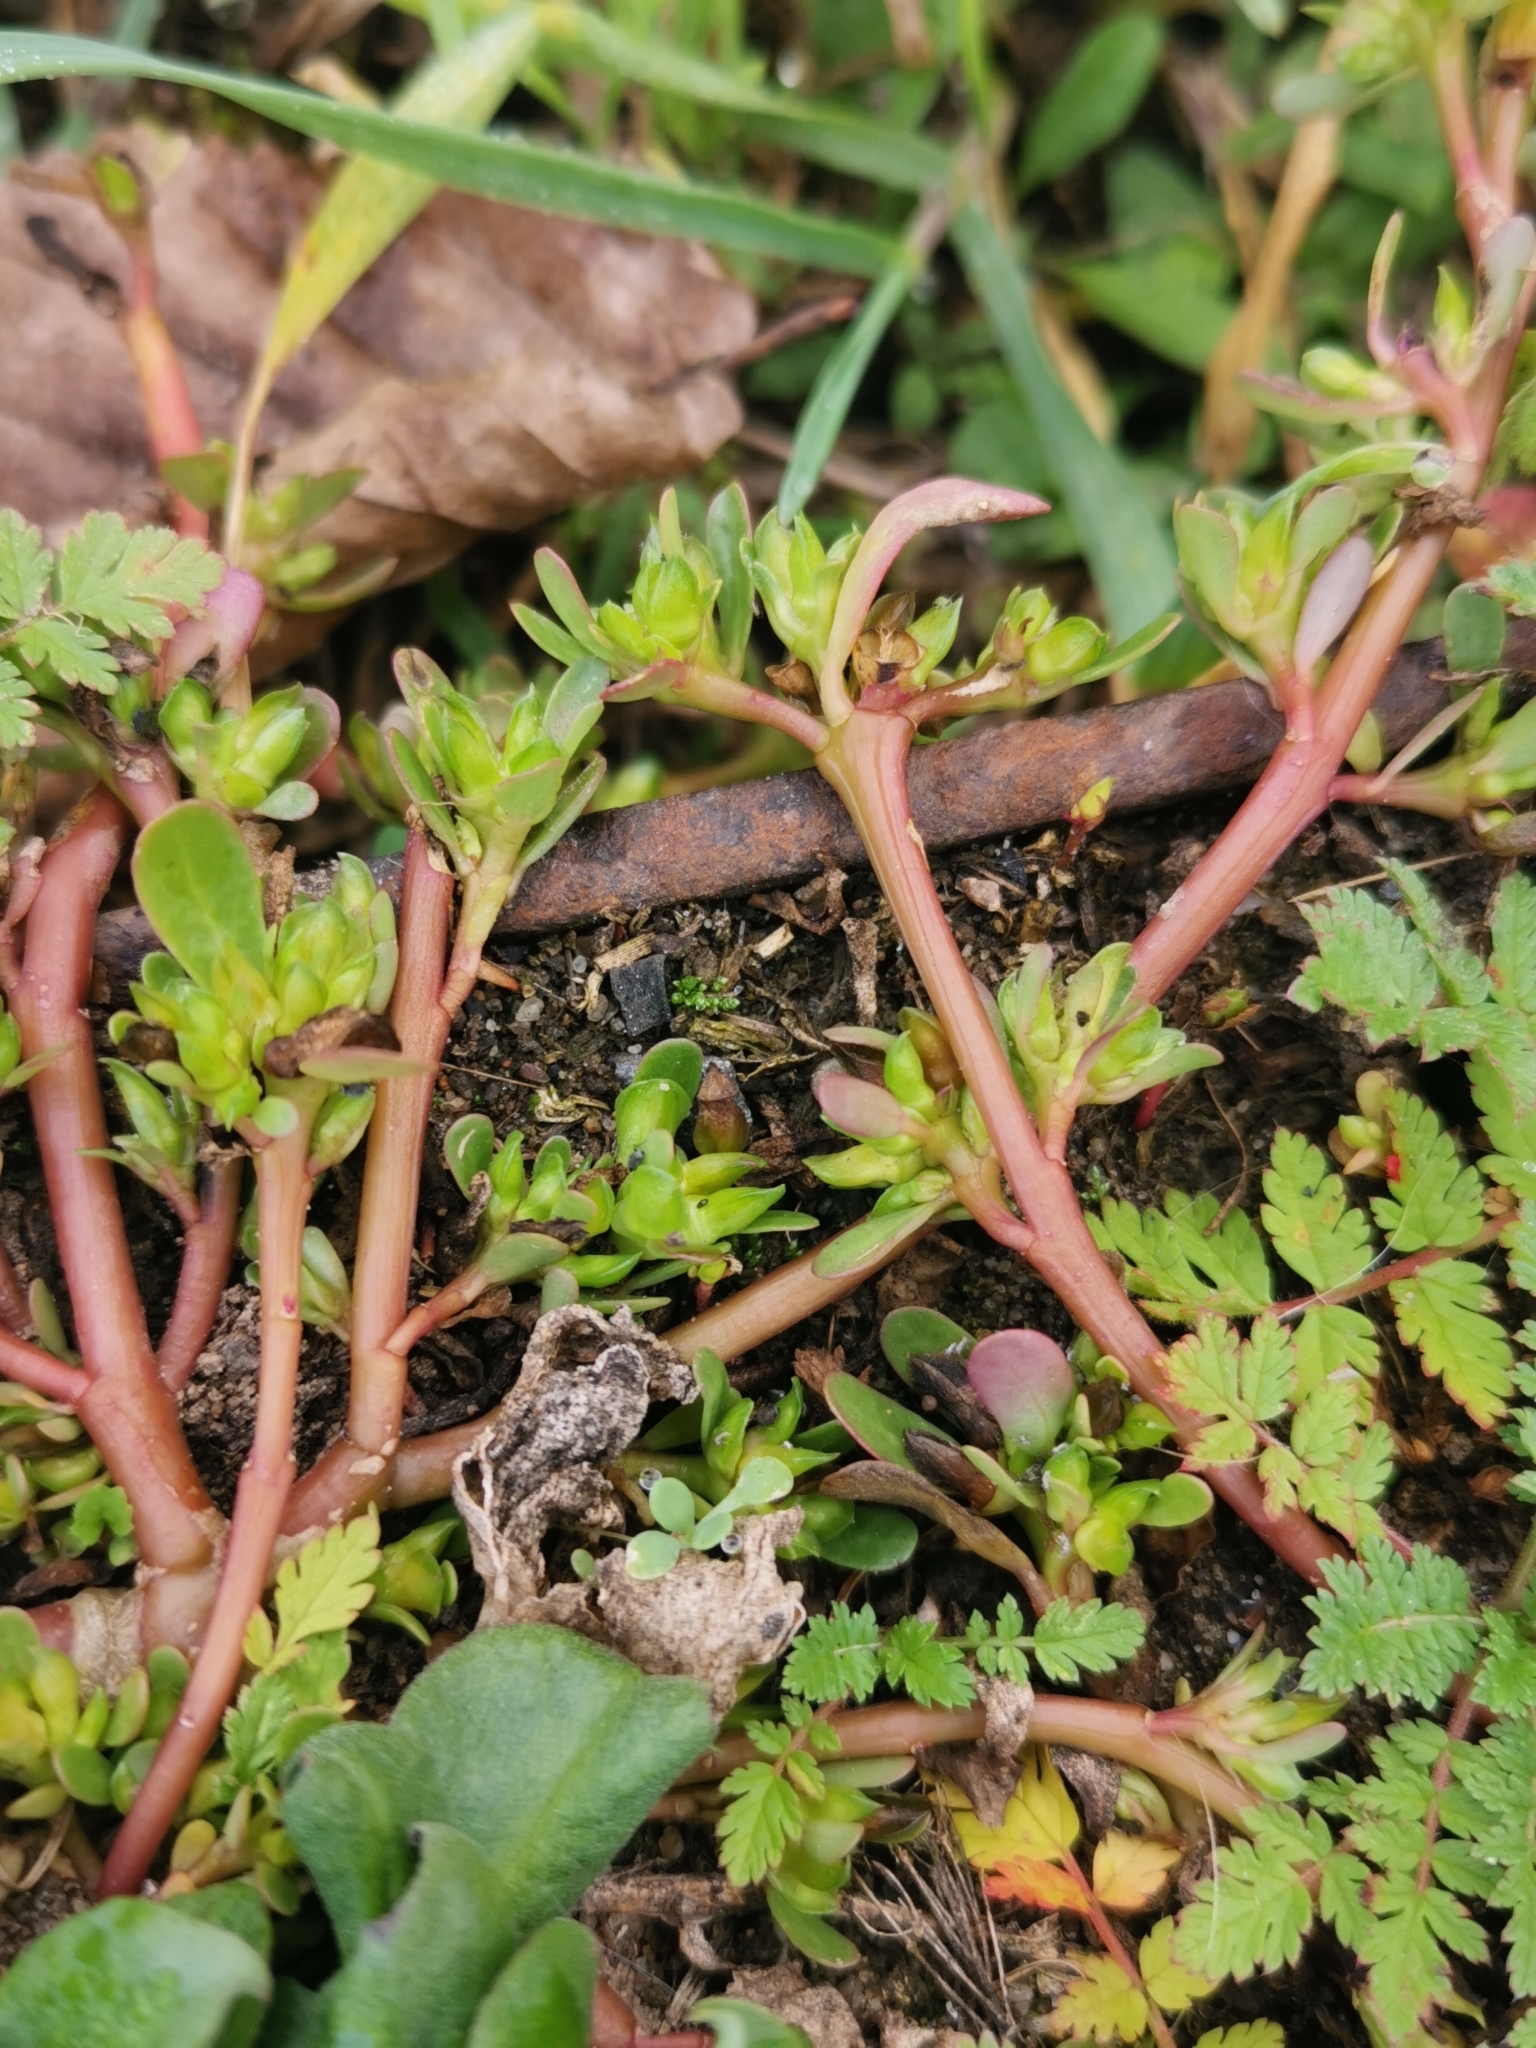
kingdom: Plantae
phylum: Tracheophyta
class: Magnoliopsida
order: Caryophyllales
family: Portulacaceae
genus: Portulaca
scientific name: Portulaca oleracea
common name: Common purslane
